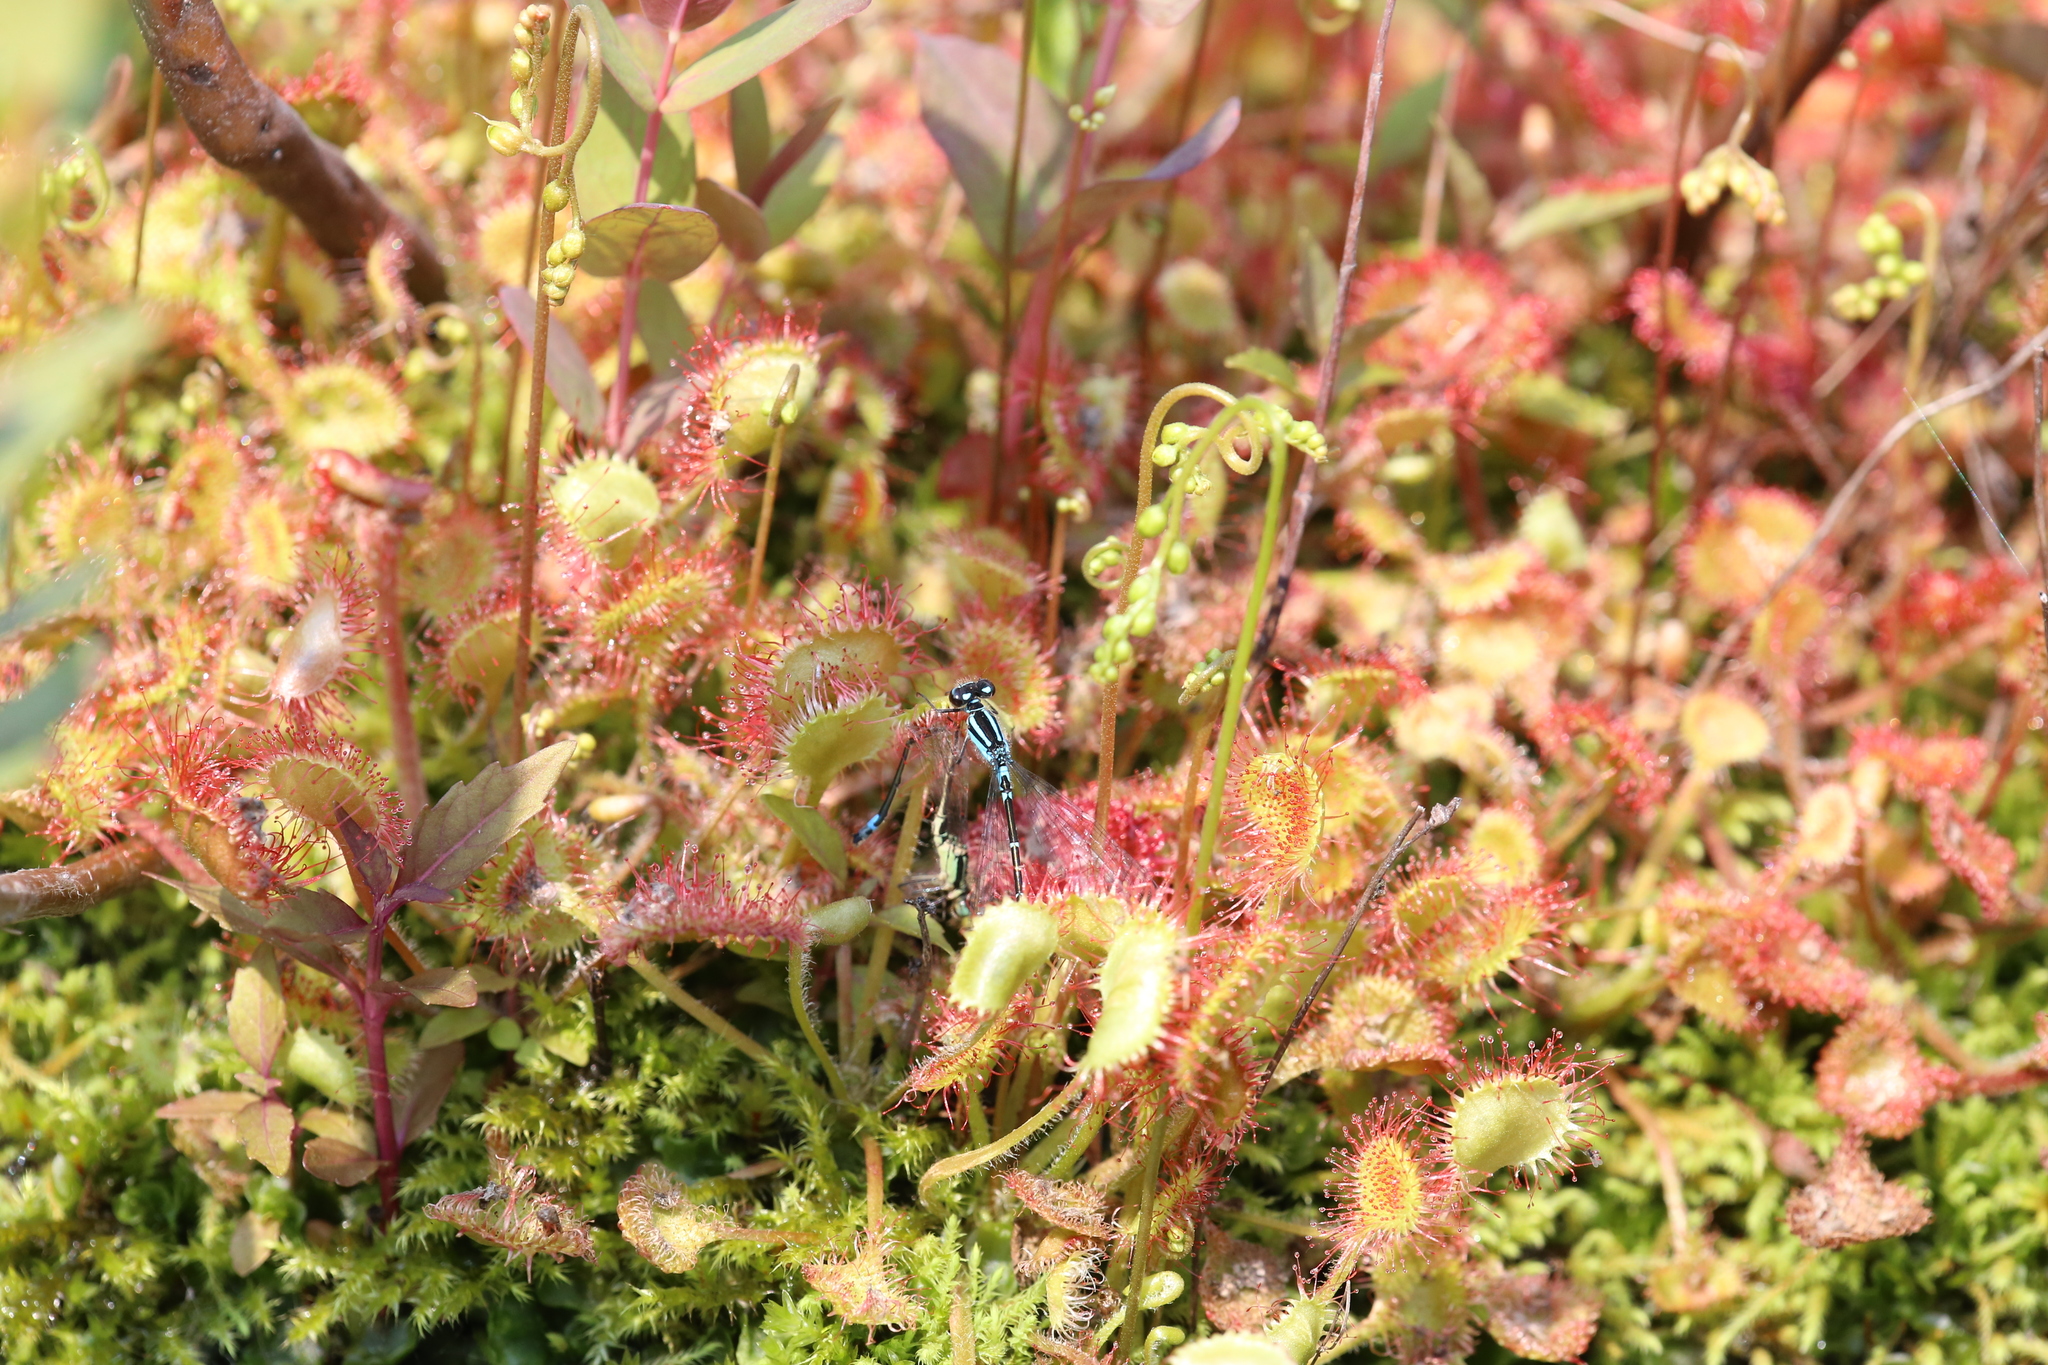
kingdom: Plantae
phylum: Tracheophyta
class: Magnoliopsida
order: Caryophyllales
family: Droseraceae
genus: Drosera
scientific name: Drosera rotundifolia
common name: Round-leaved sundew
